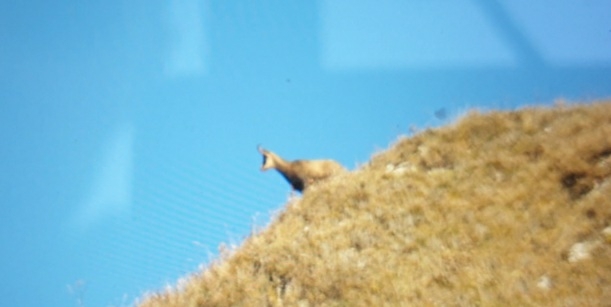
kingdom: Animalia
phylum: Chordata
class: Mammalia
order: Artiodactyla
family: Bovidae
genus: Rupicapra
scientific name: Rupicapra rupicapra
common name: Chamois
